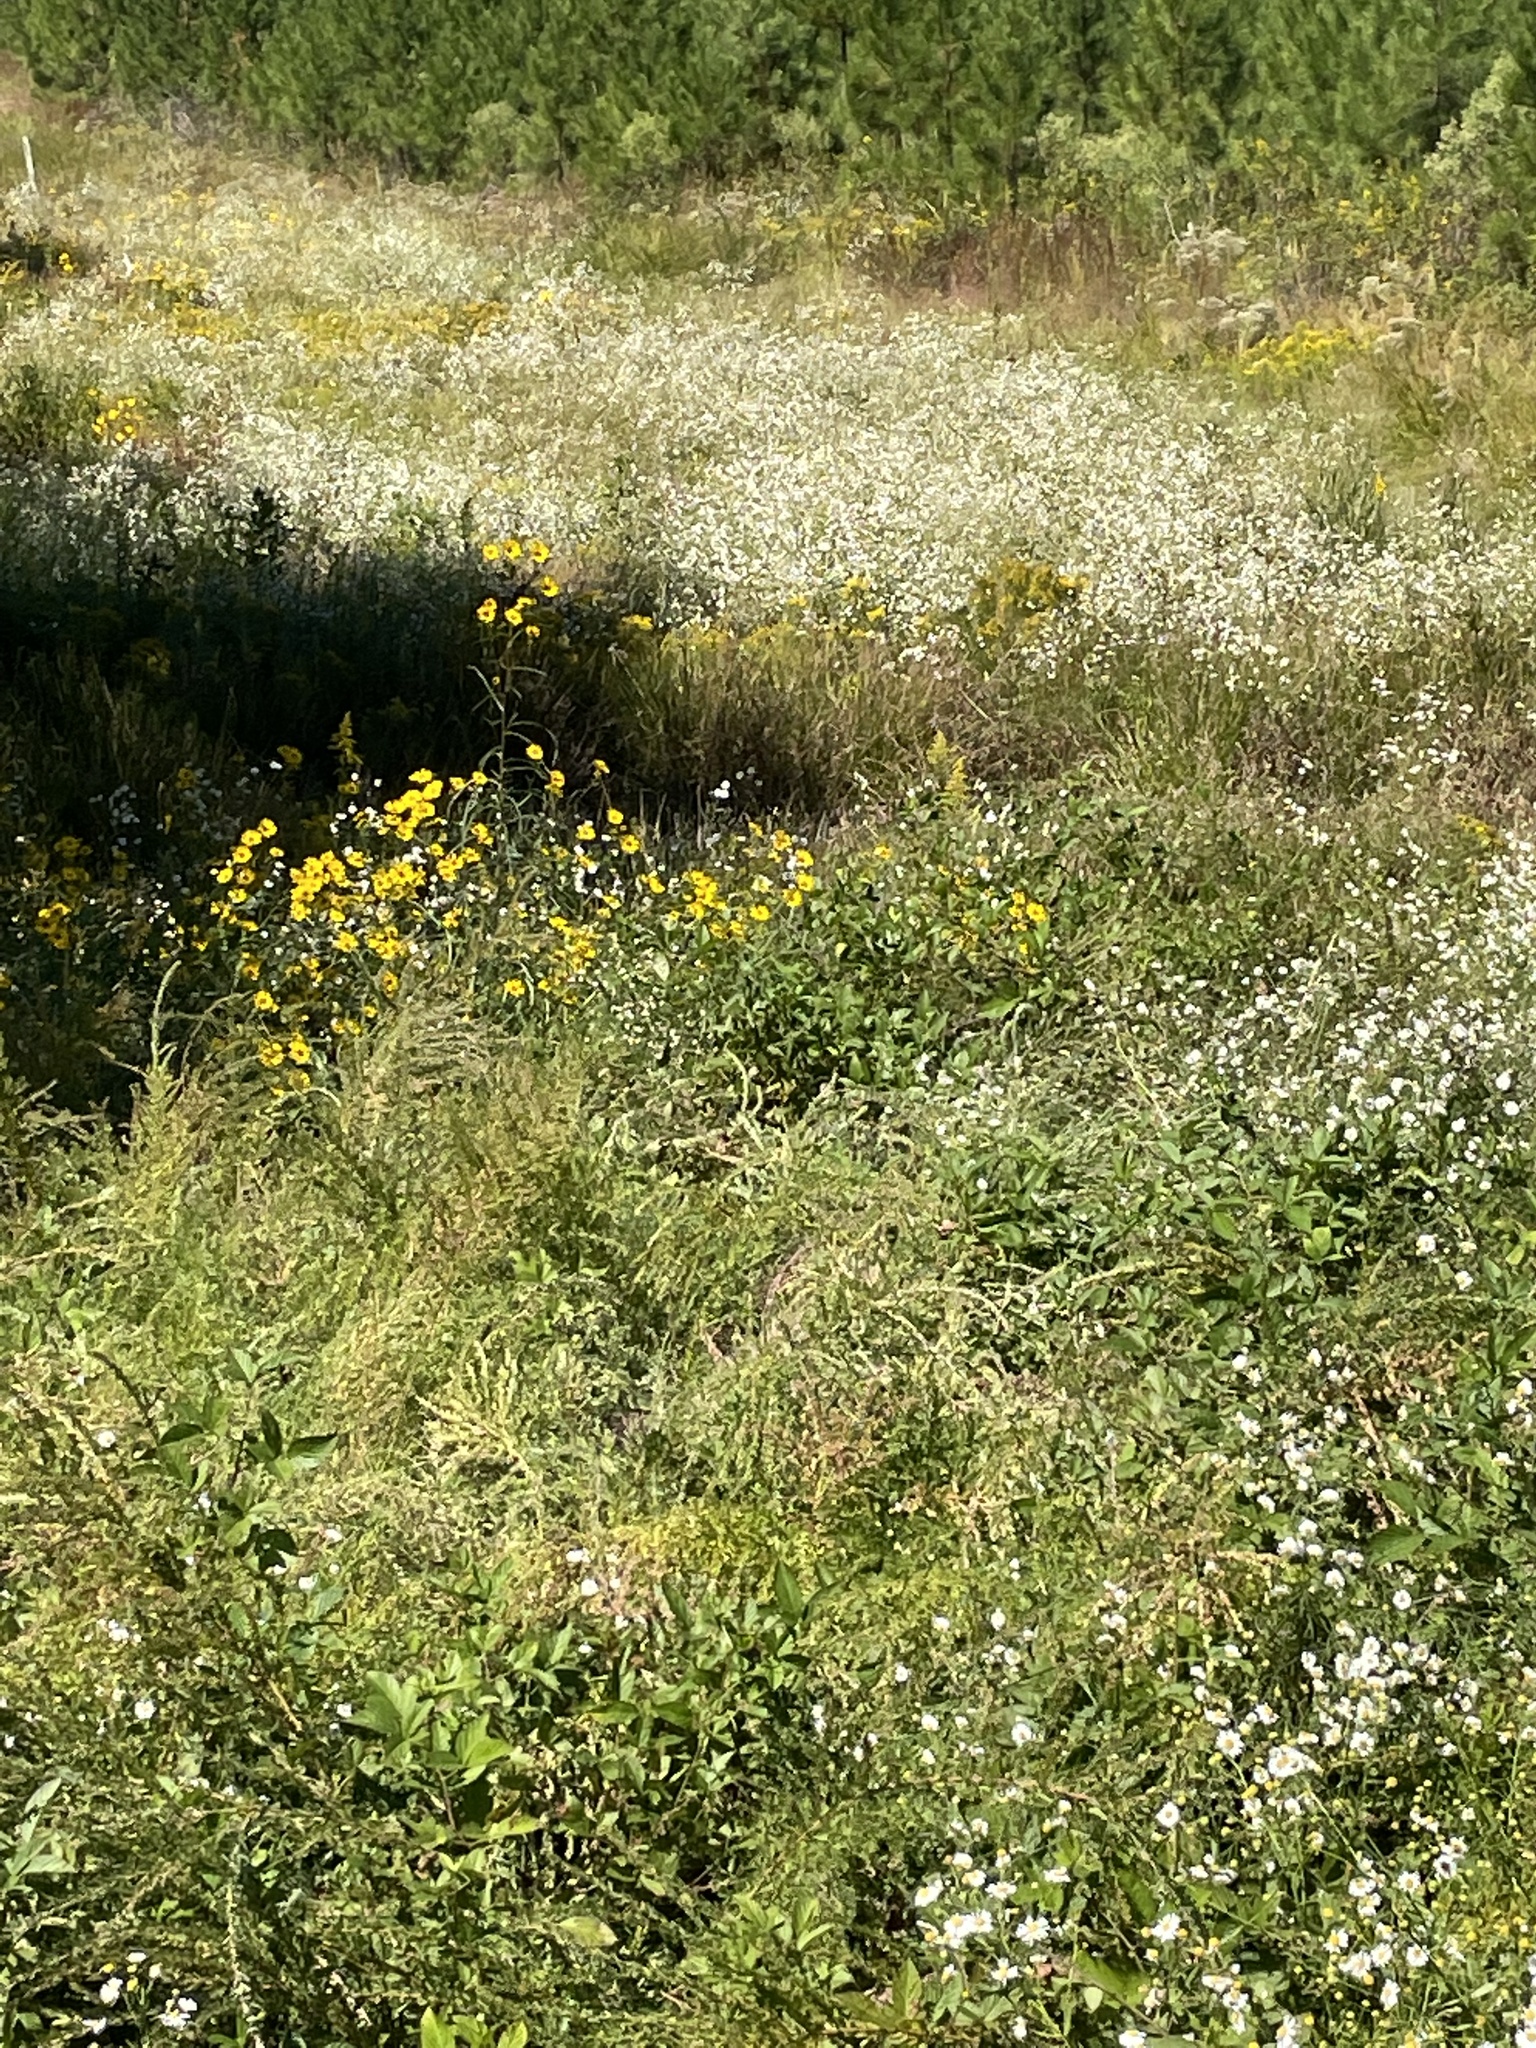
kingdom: Plantae
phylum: Tracheophyta
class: Magnoliopsida
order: Asterales
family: Asteraceae
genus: Helianthus
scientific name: Helianthus angustifolius
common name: Swamp sunflower
